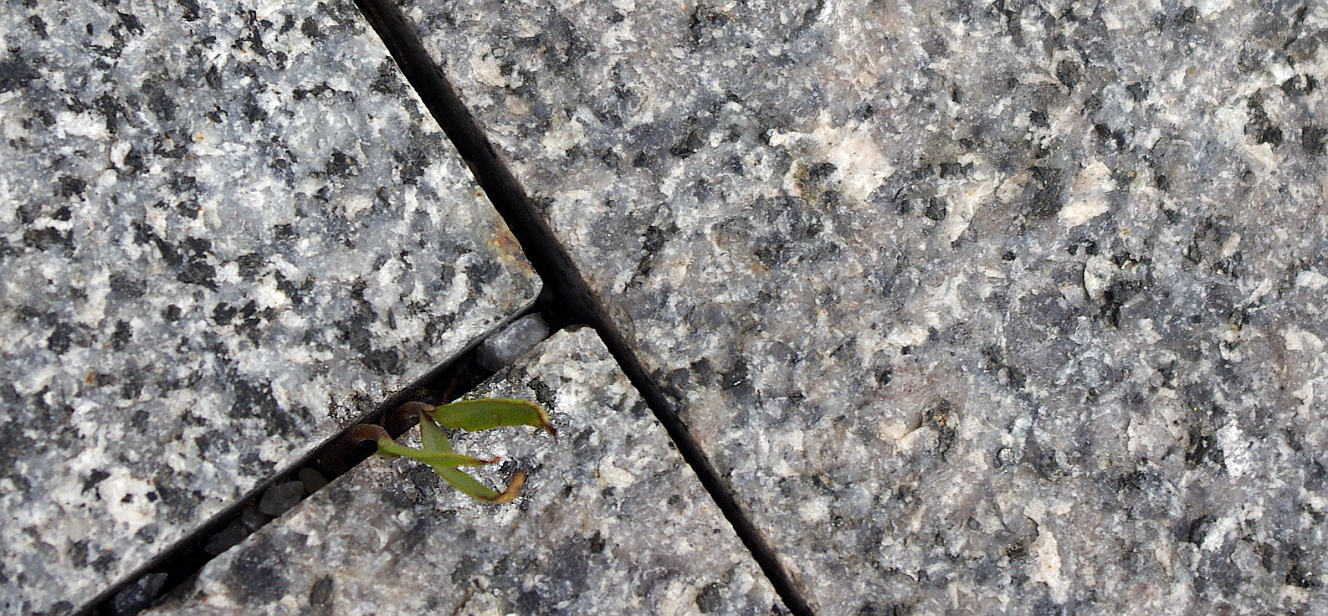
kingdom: Plantae
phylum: Tracheophyta
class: Magnoliopsida
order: Sapindales
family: Sapindaceae
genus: Acer
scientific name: Acer negundo
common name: Ashleaf maple
